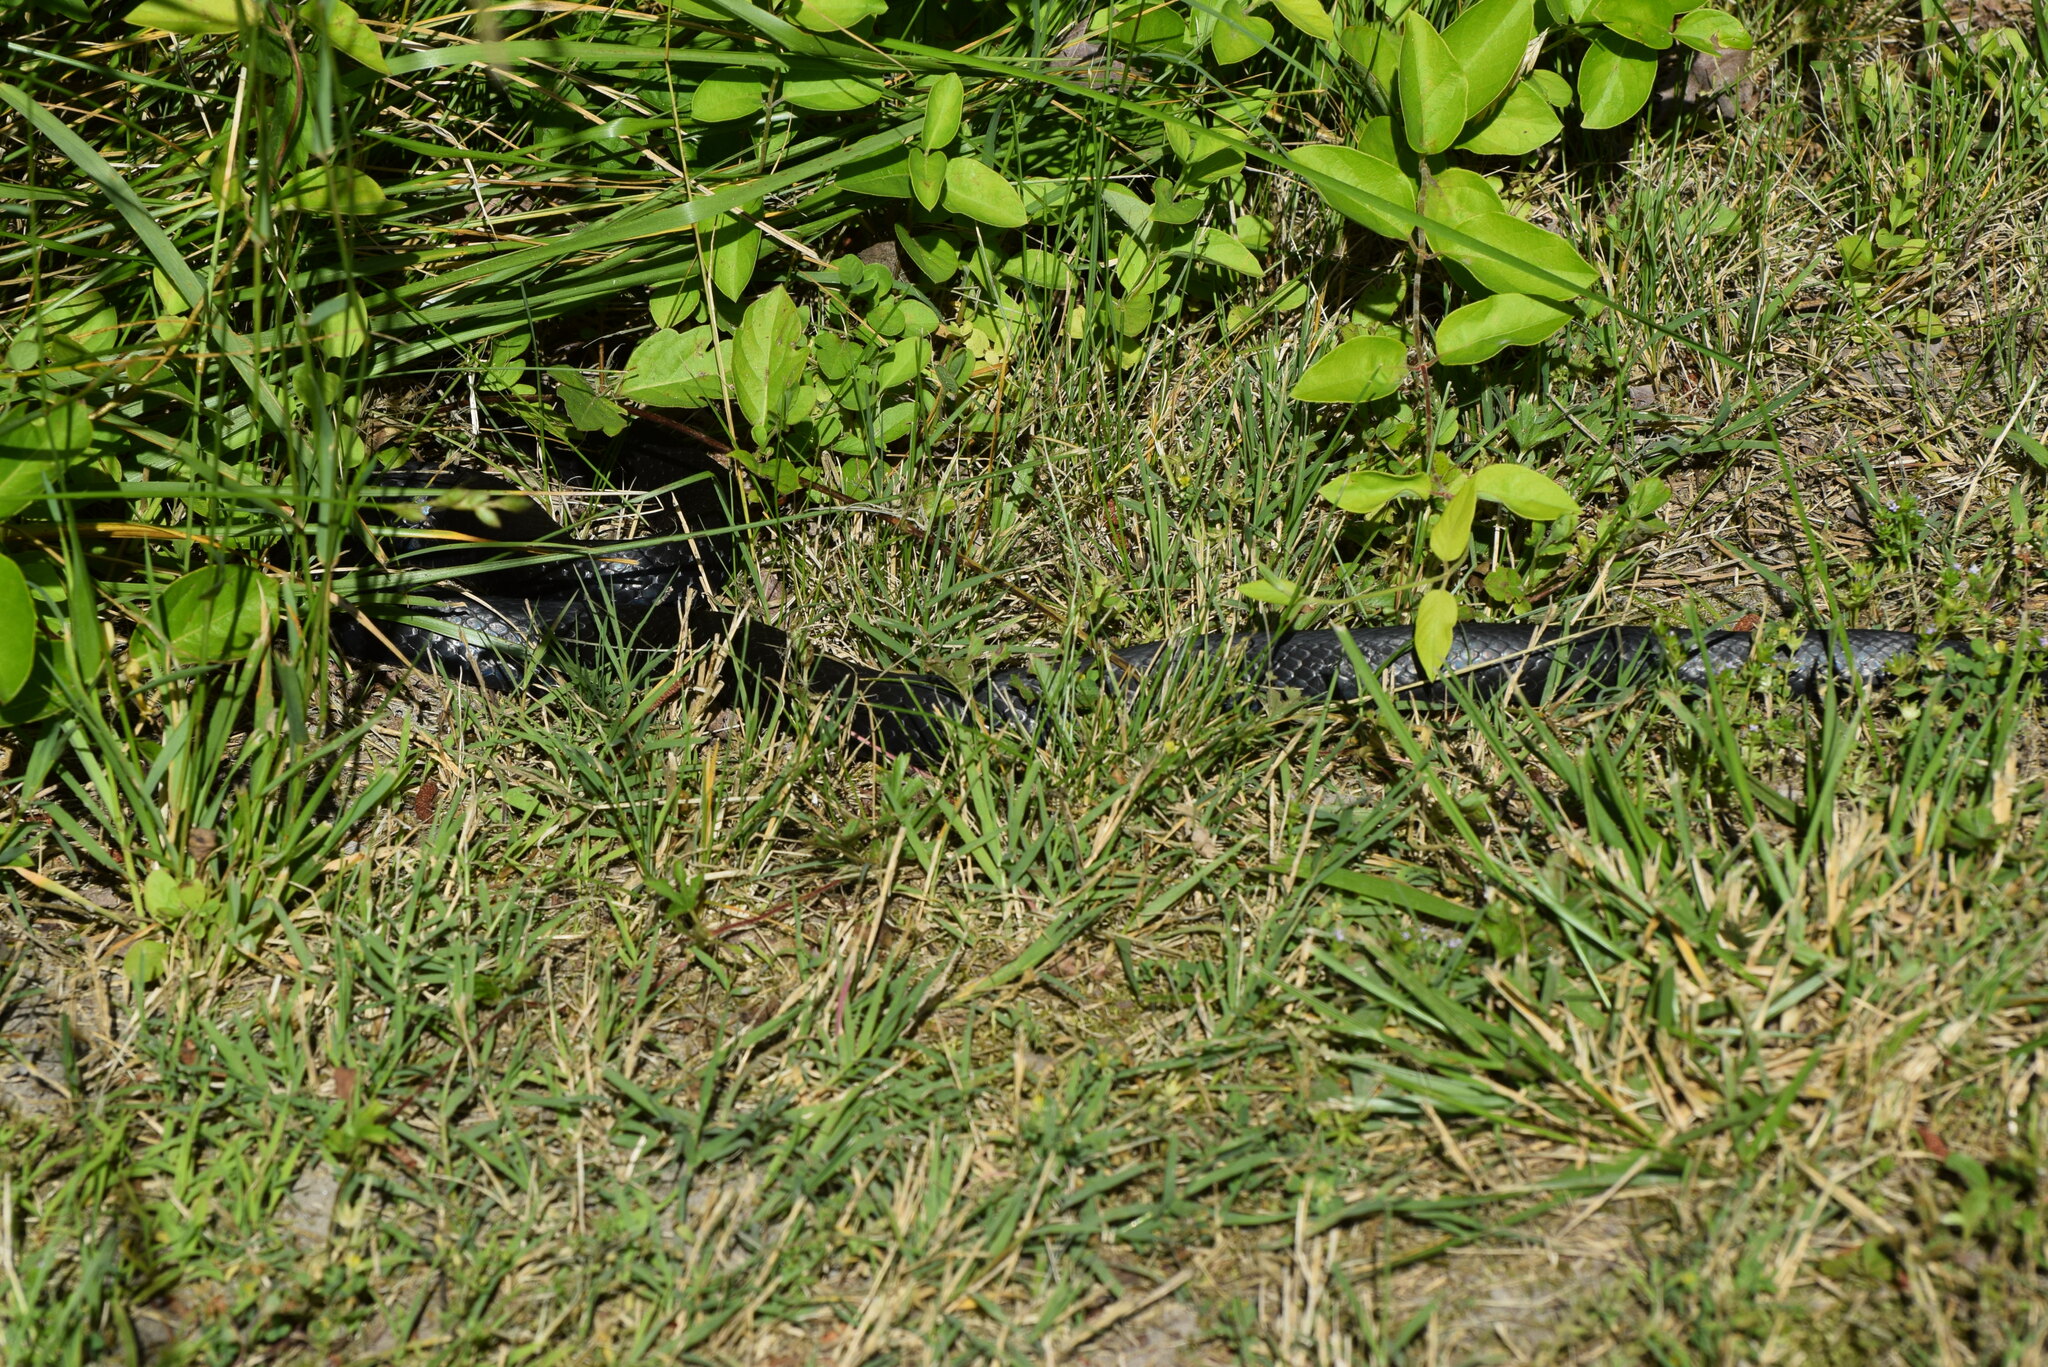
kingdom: Animalia
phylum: Chordata
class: Squamata
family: Colubridae
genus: Coluber
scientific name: Coluber constrictor
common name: Eastern racer
